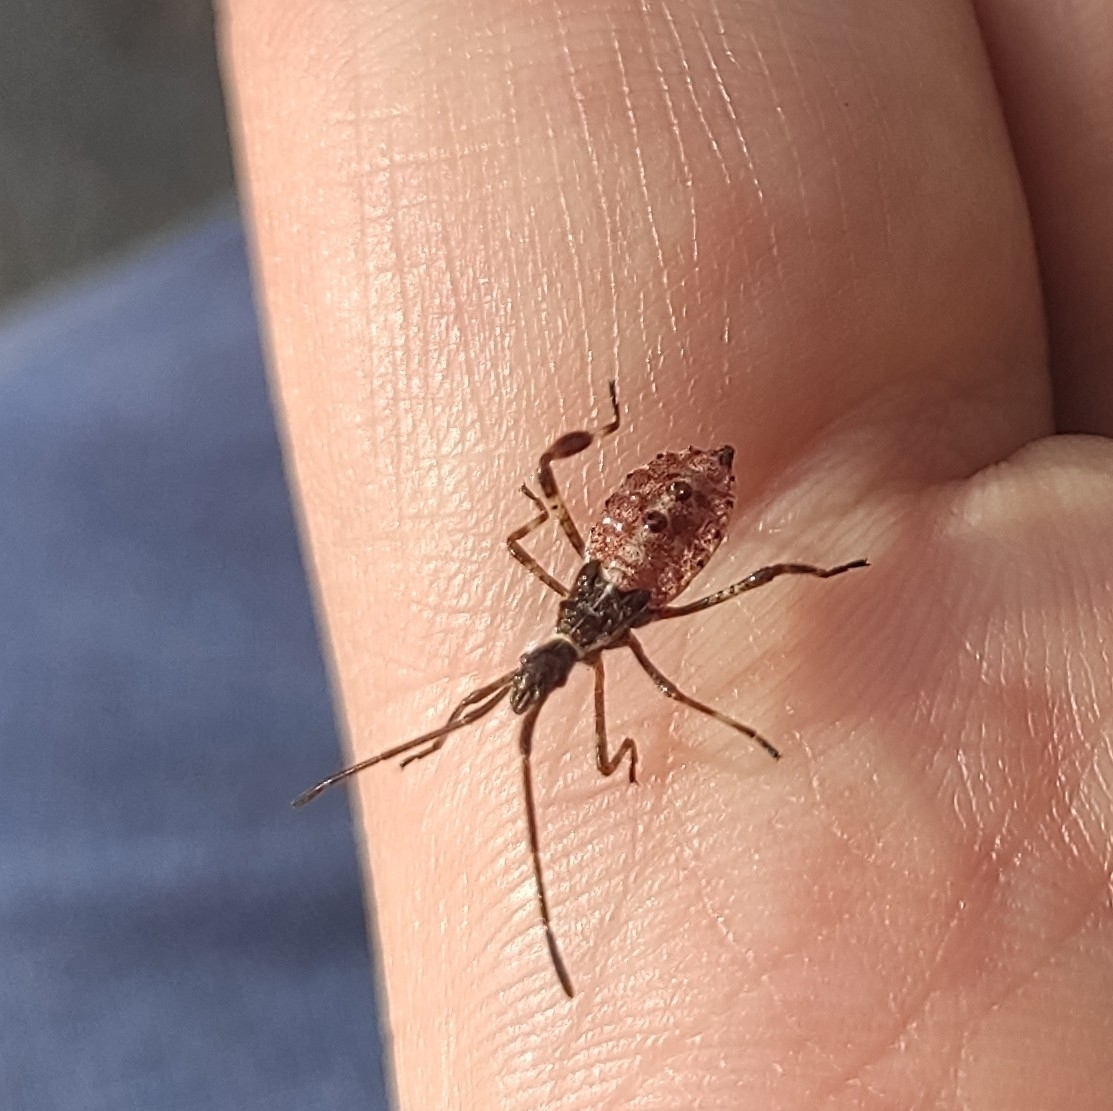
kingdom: Animalia
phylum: Arthropoda
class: Insecta
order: Hemiptera
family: Coreidae
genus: Leptoglossus
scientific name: Leptoglossus occidentalis
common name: Western conifer-seed bug
